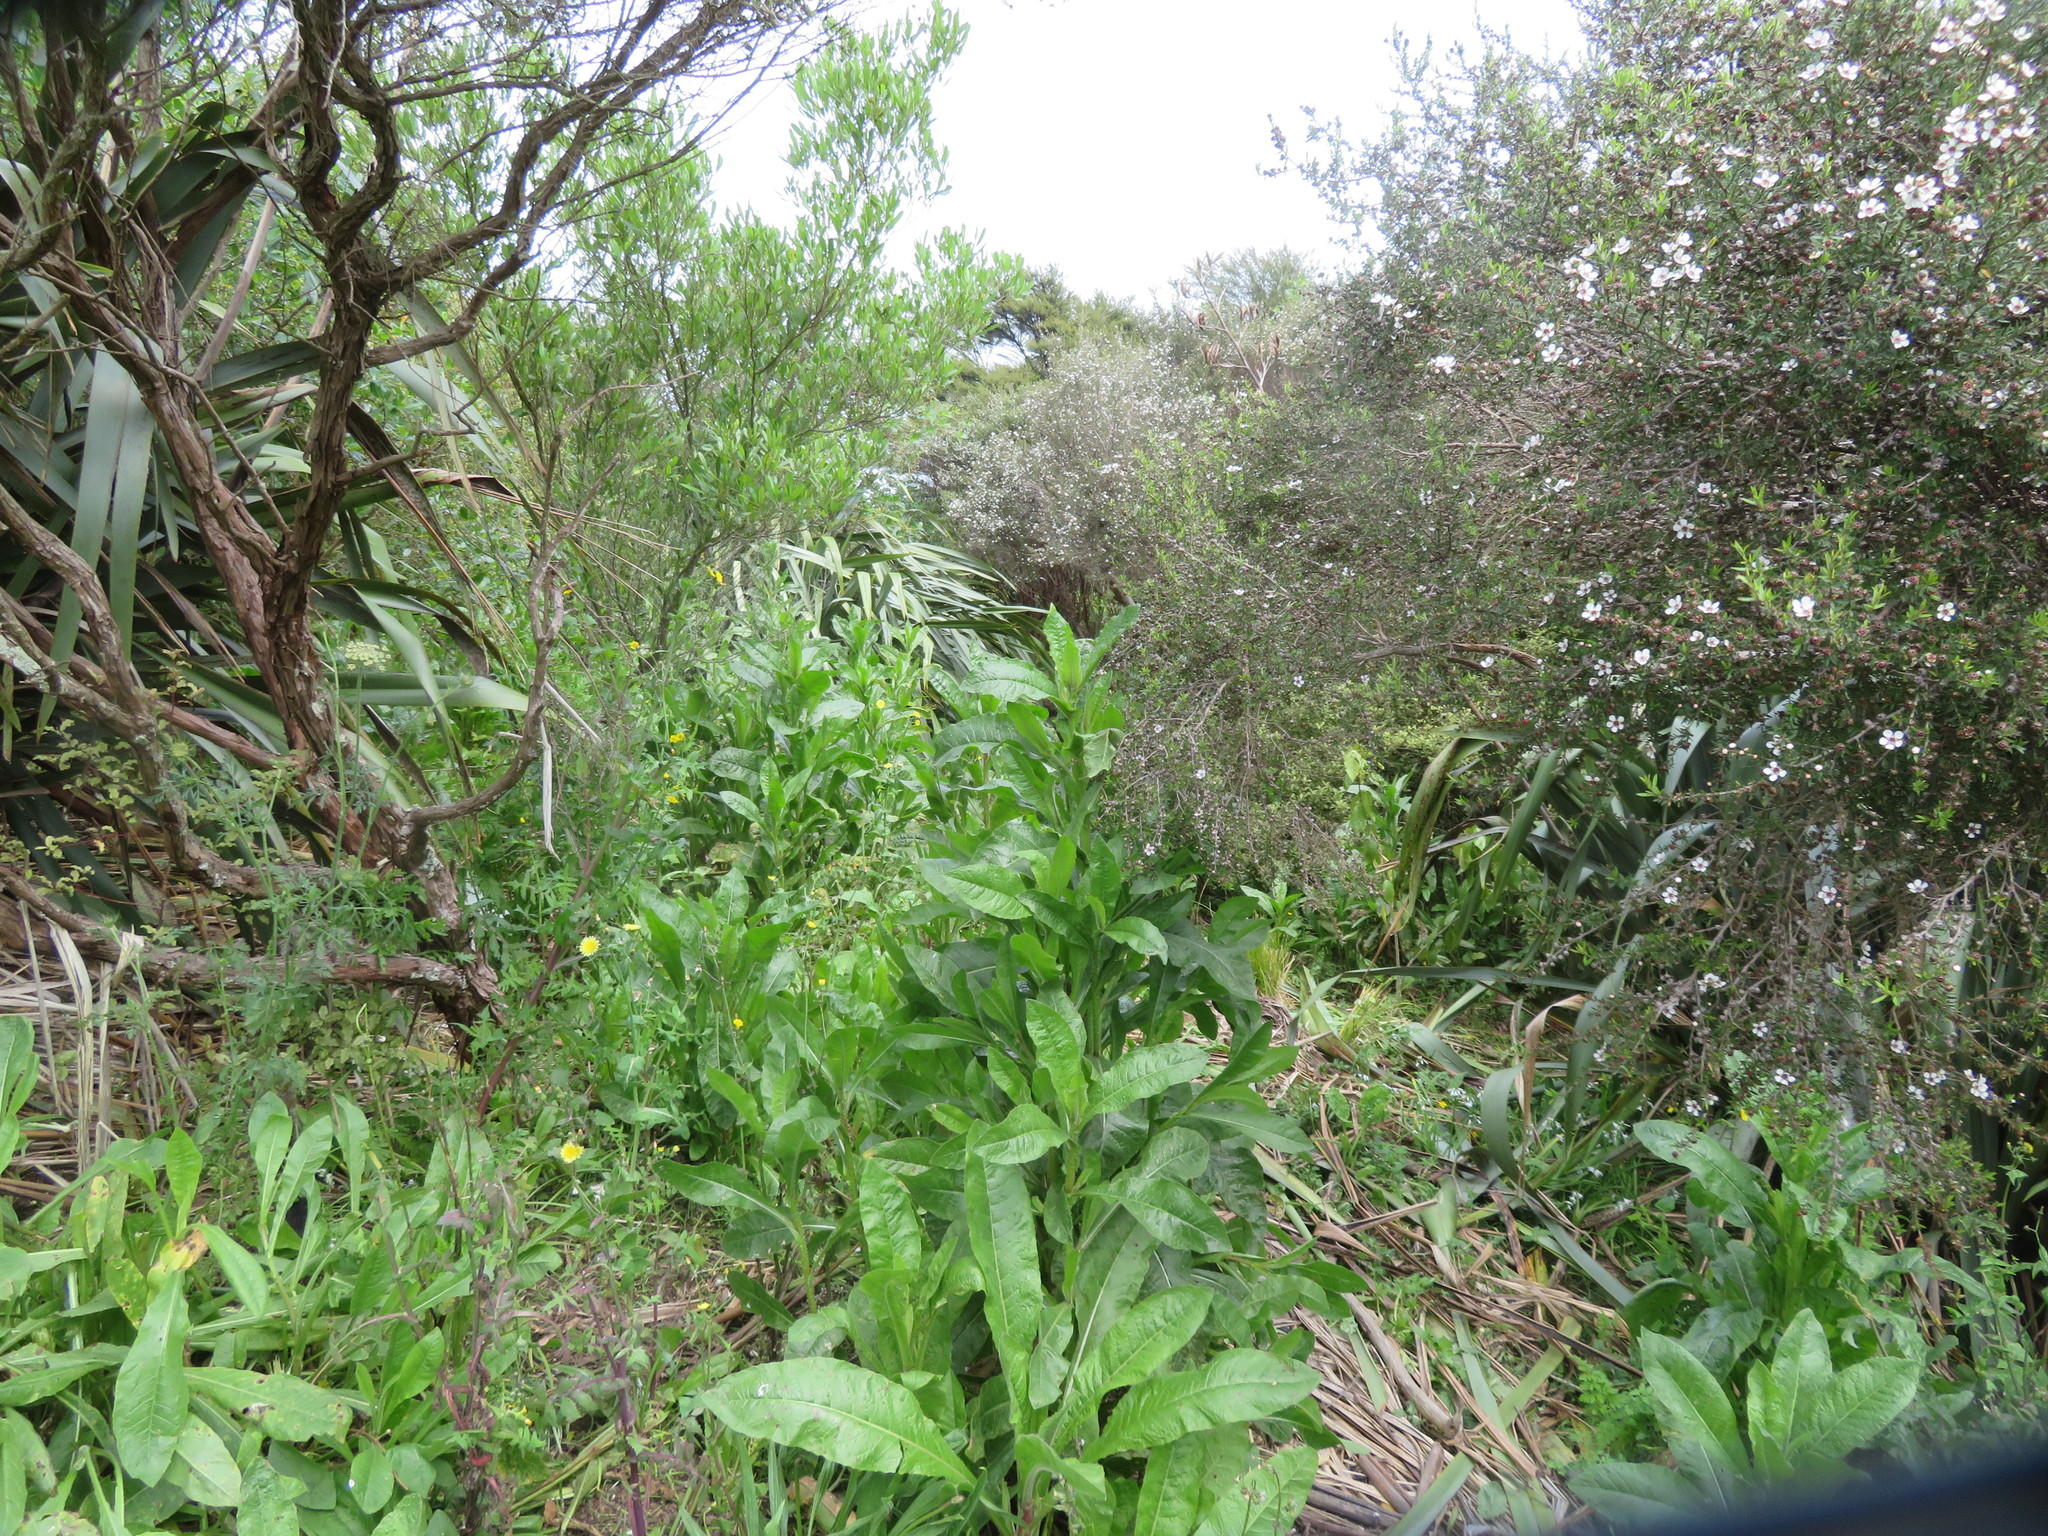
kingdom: Plantae
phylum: Tracheophyta
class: Magnoliopsida
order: Asterales
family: Asteraceae
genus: Helminthotheca
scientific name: Helminthotheca echioides
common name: Ox-tongue
